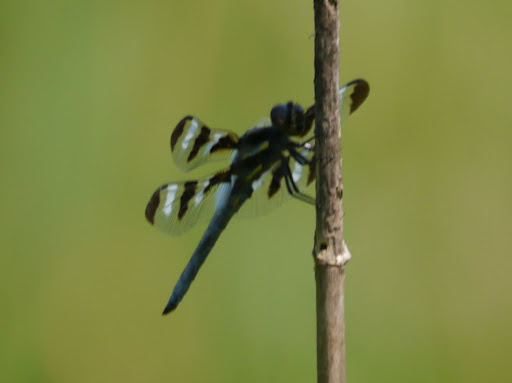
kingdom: Animalia
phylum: Arthropoda
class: Insecta
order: Odonata
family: Libellulidae
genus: Libellula
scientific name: Libellula pulchella
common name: Twelve-spotted skimmer
